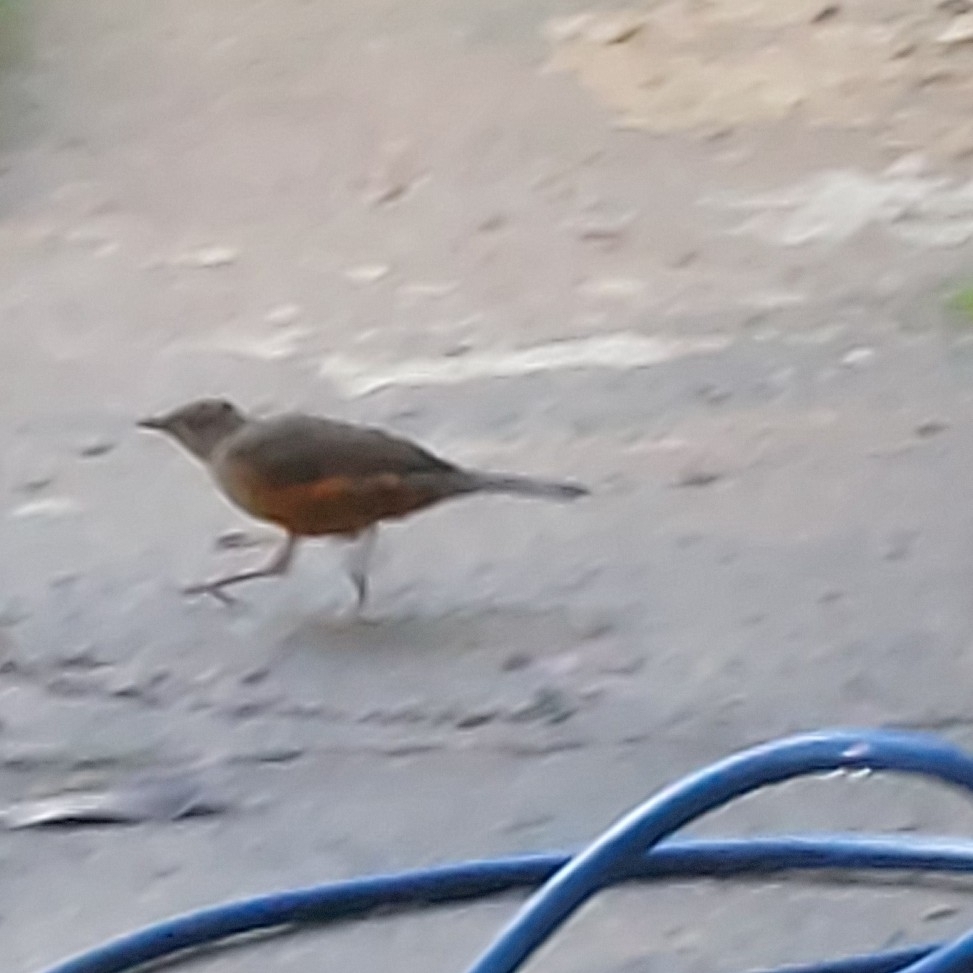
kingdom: Animalia
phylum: Chordata
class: Aves
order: Passeriformes
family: Turdidae
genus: Turdus
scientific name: Turdus rufiventris
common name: Rufous-bellied thrush
